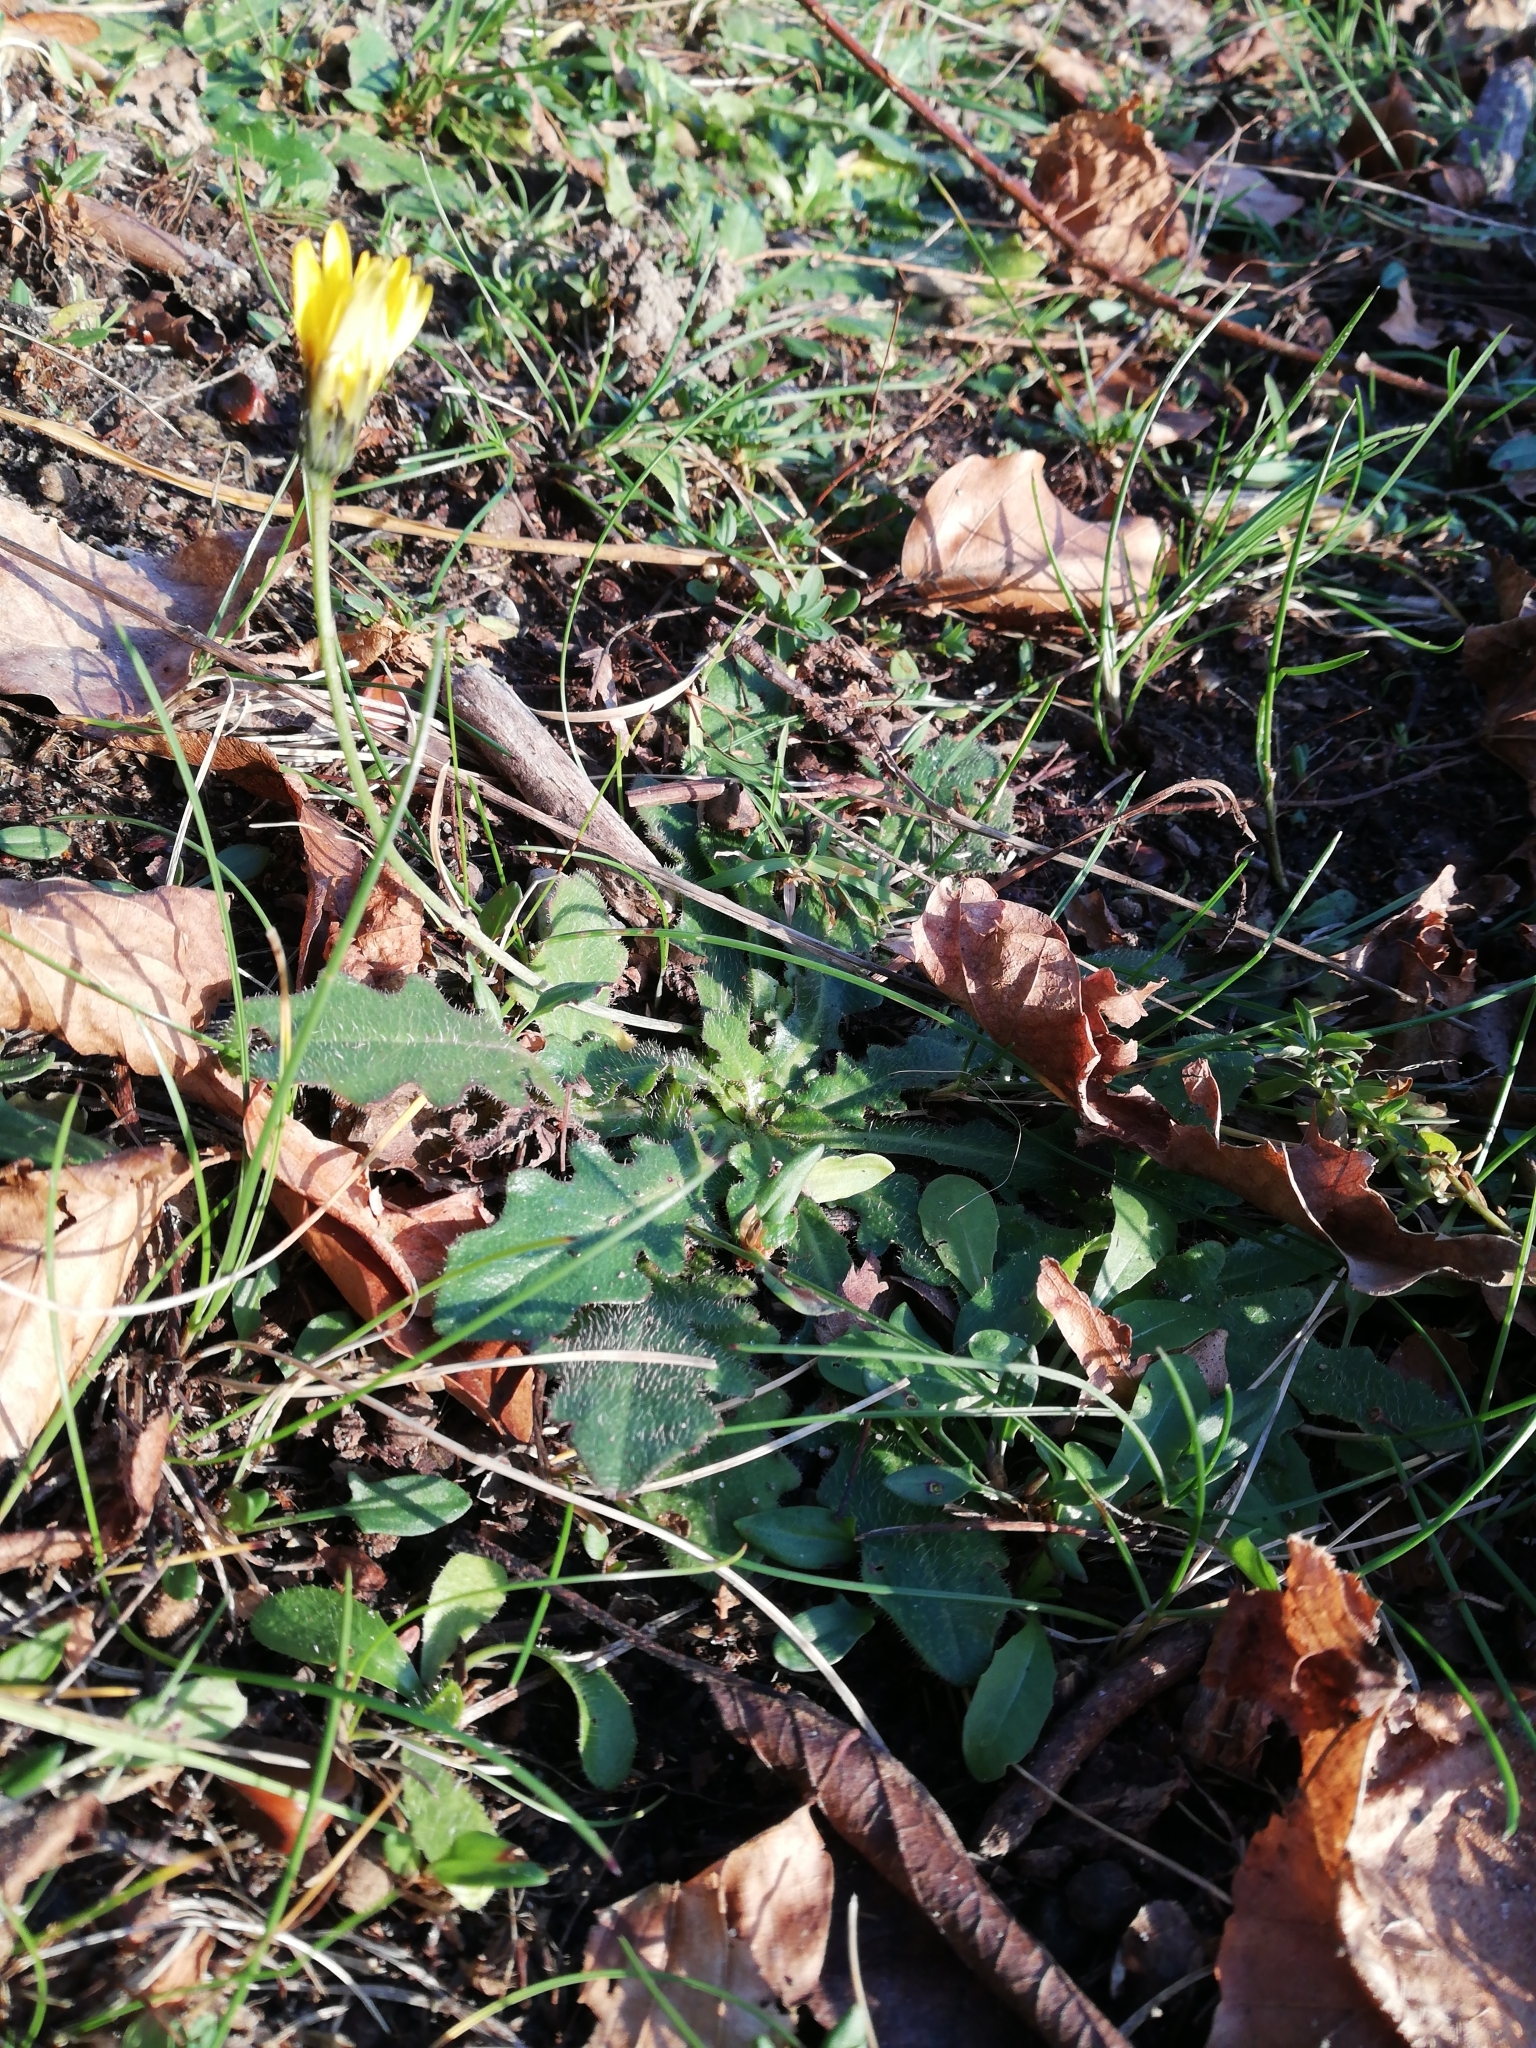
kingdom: Plantae
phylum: Tracheophyta
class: Magnoliopsida
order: Asterales
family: Asteraceae
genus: Hypochaeris
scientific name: Hypochaeris radicata
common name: Flatweed
